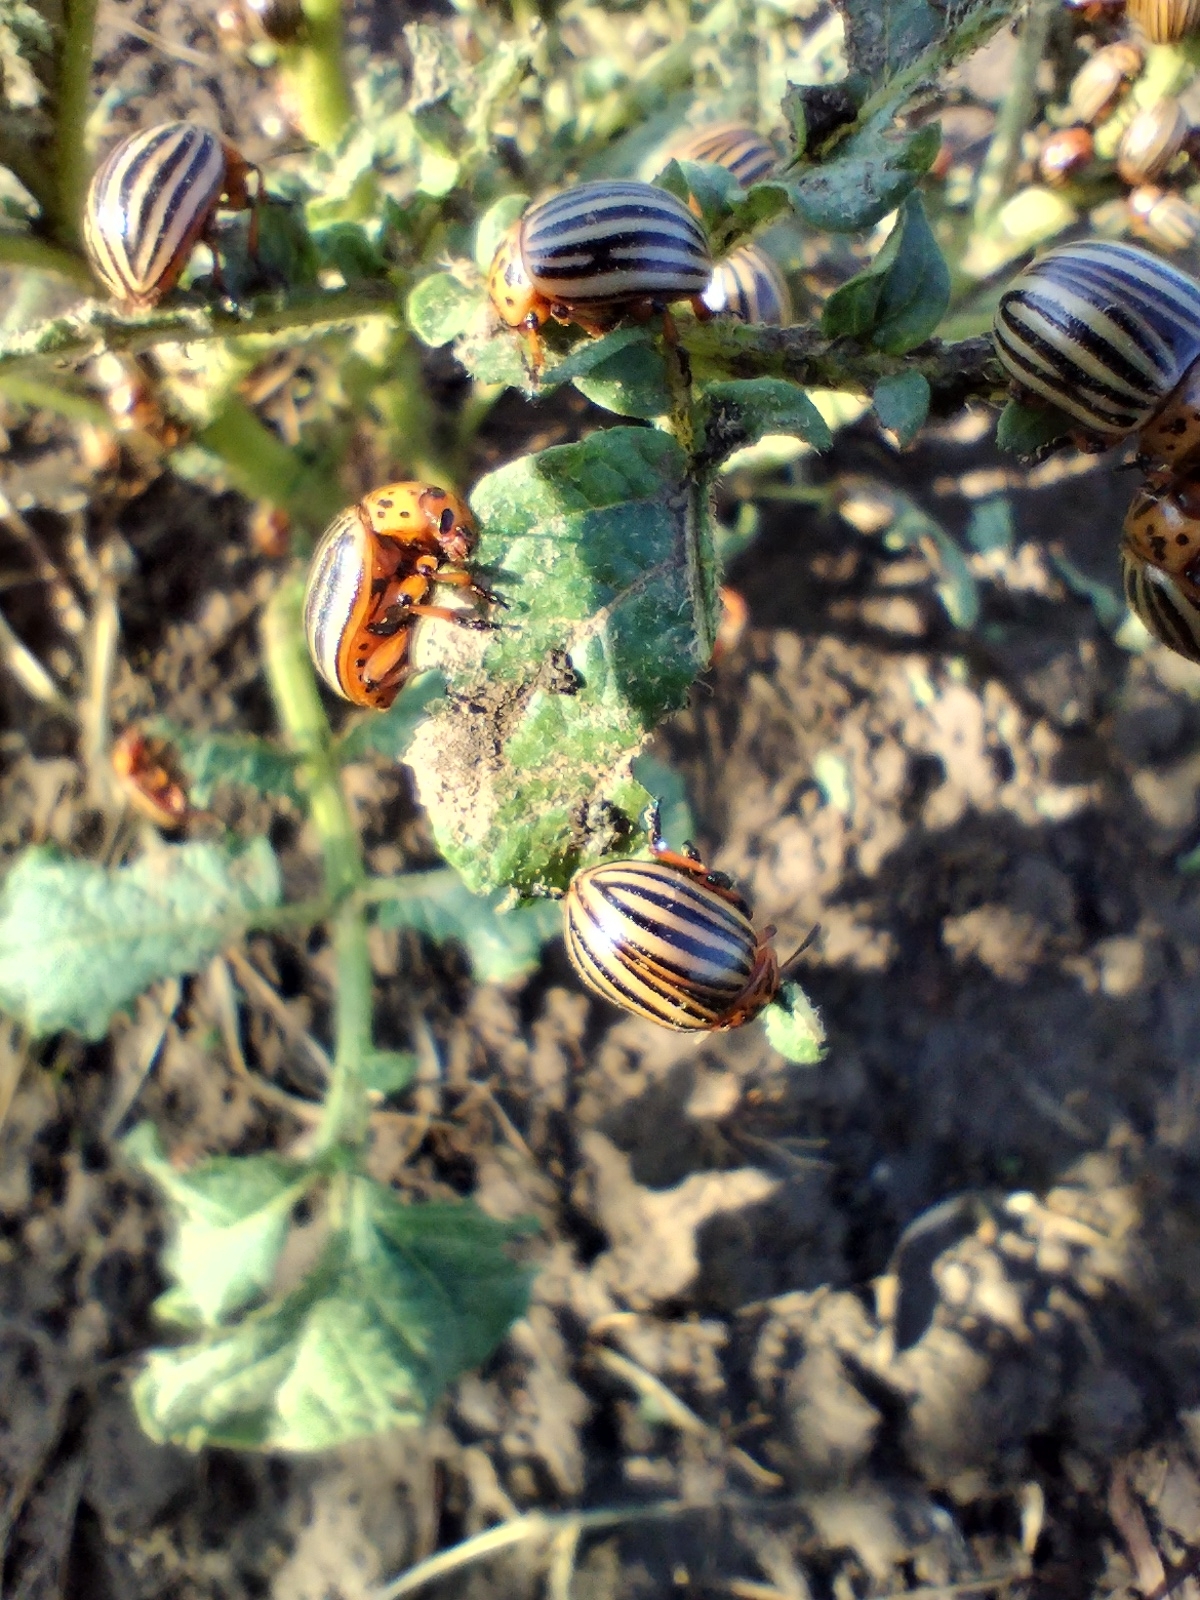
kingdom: Animalia
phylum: Arthropoda
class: Insecta
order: Coleoptera
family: Chrysomelidae
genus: Leptinotarsa
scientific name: Leptinotarsa decemlineata
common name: Colorado potato beetle
